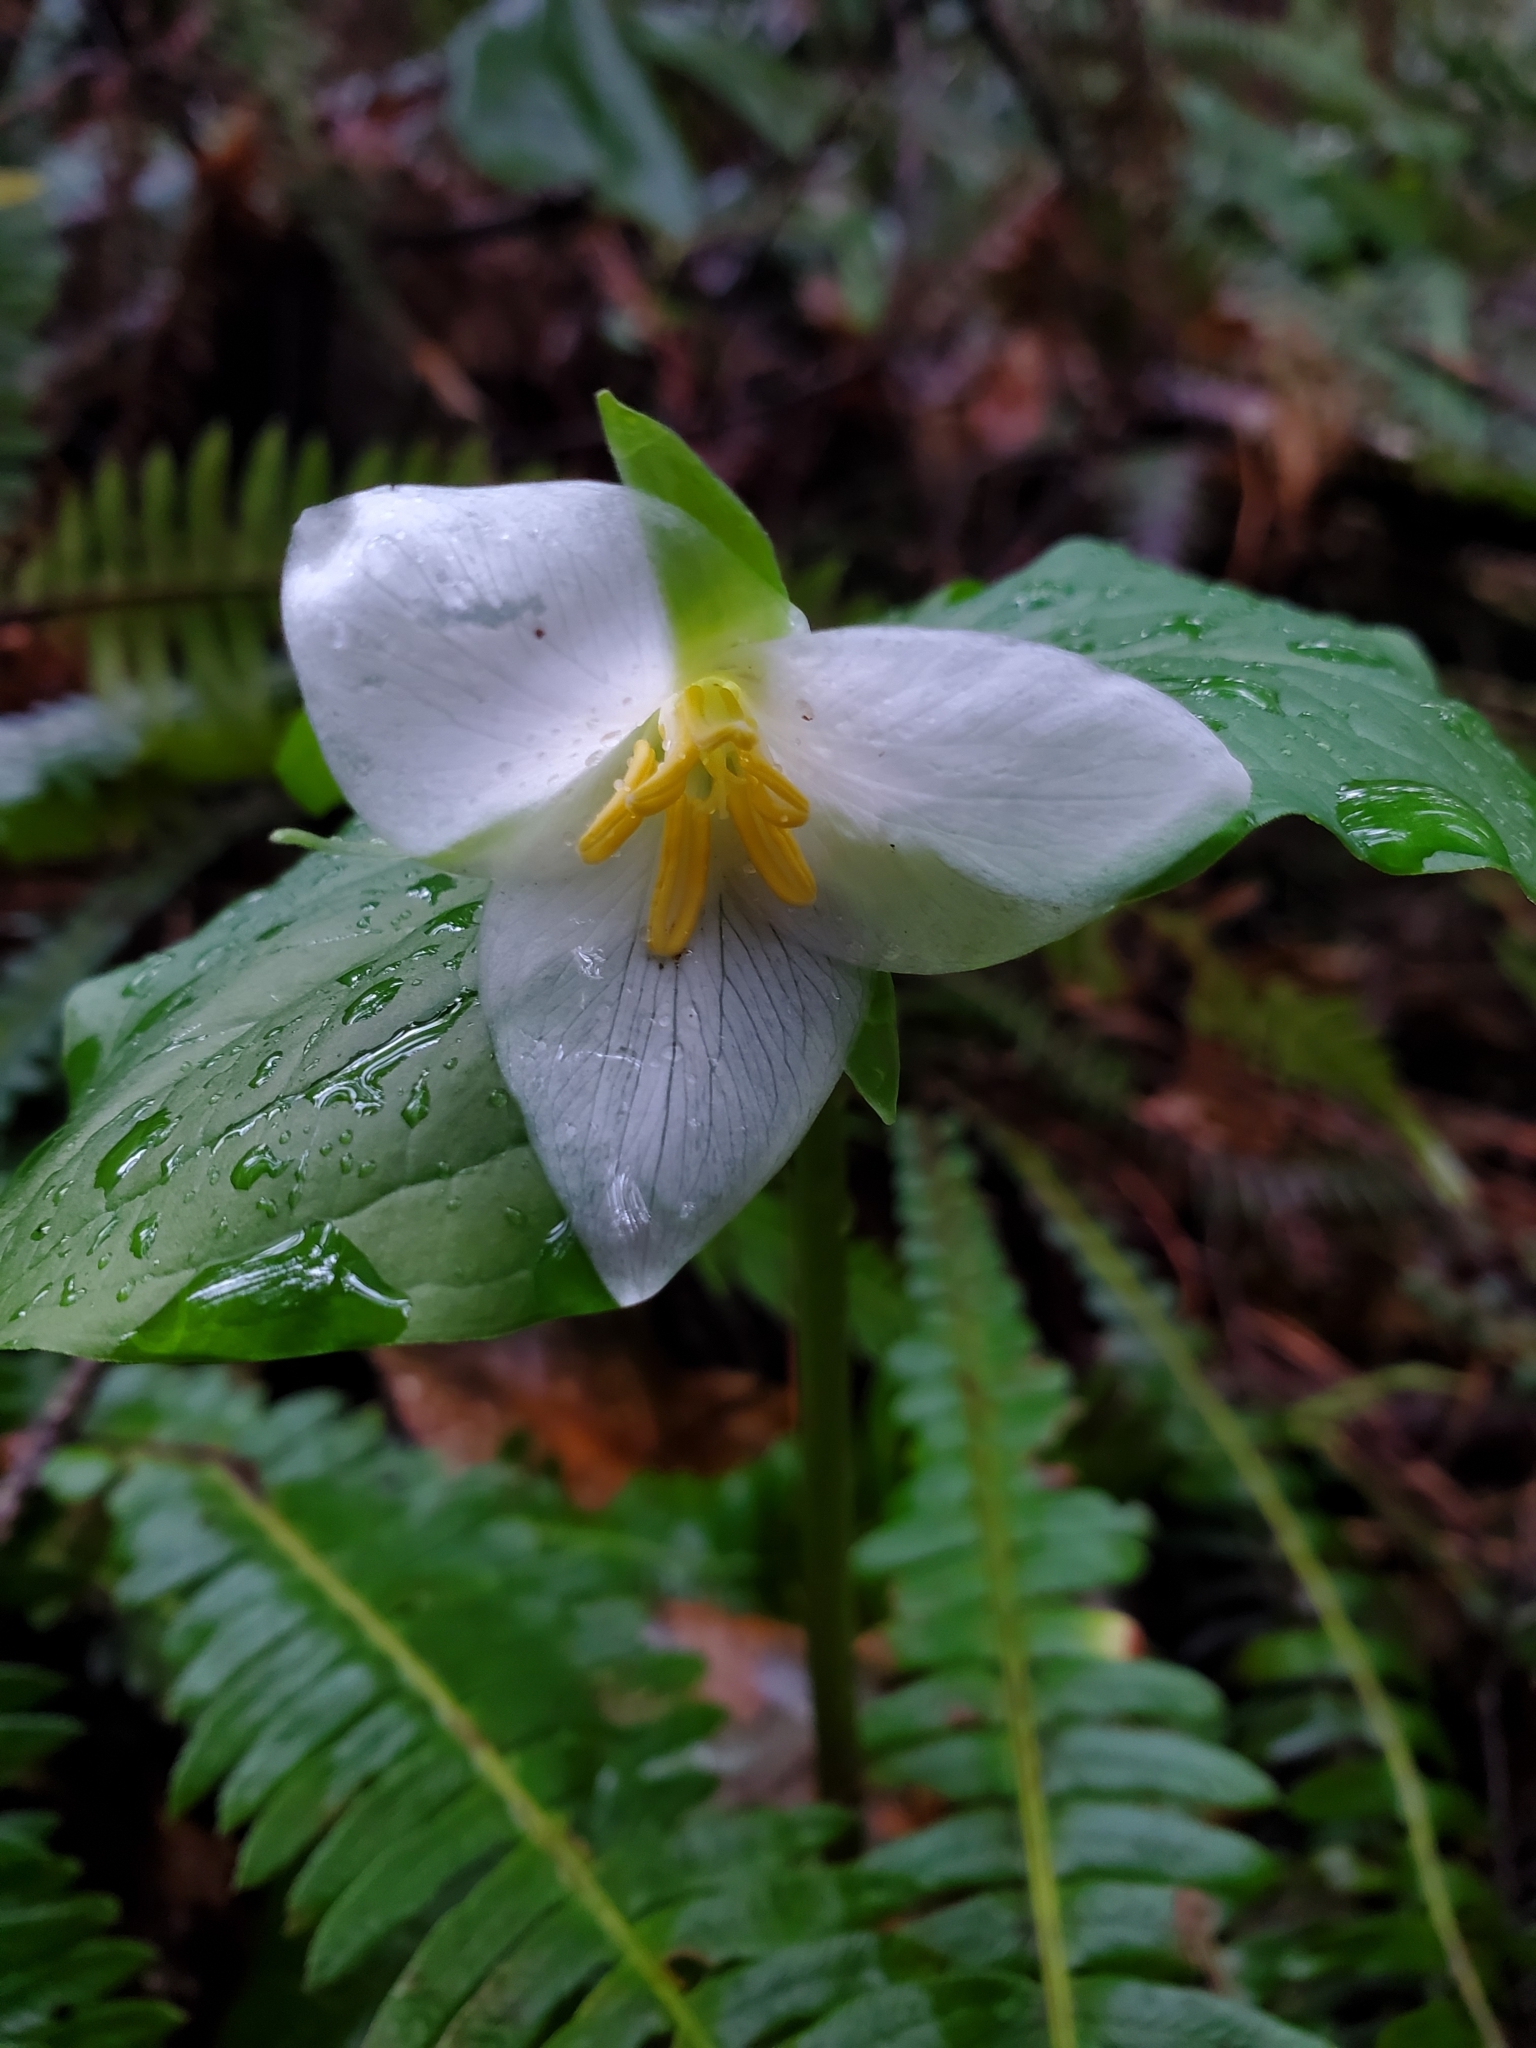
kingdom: Plantae
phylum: Tracheophyta
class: Liliopsida
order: Liliales
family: Melanthiaceae
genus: Trillium
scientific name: Trillium ovatum
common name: Pacific trillium
